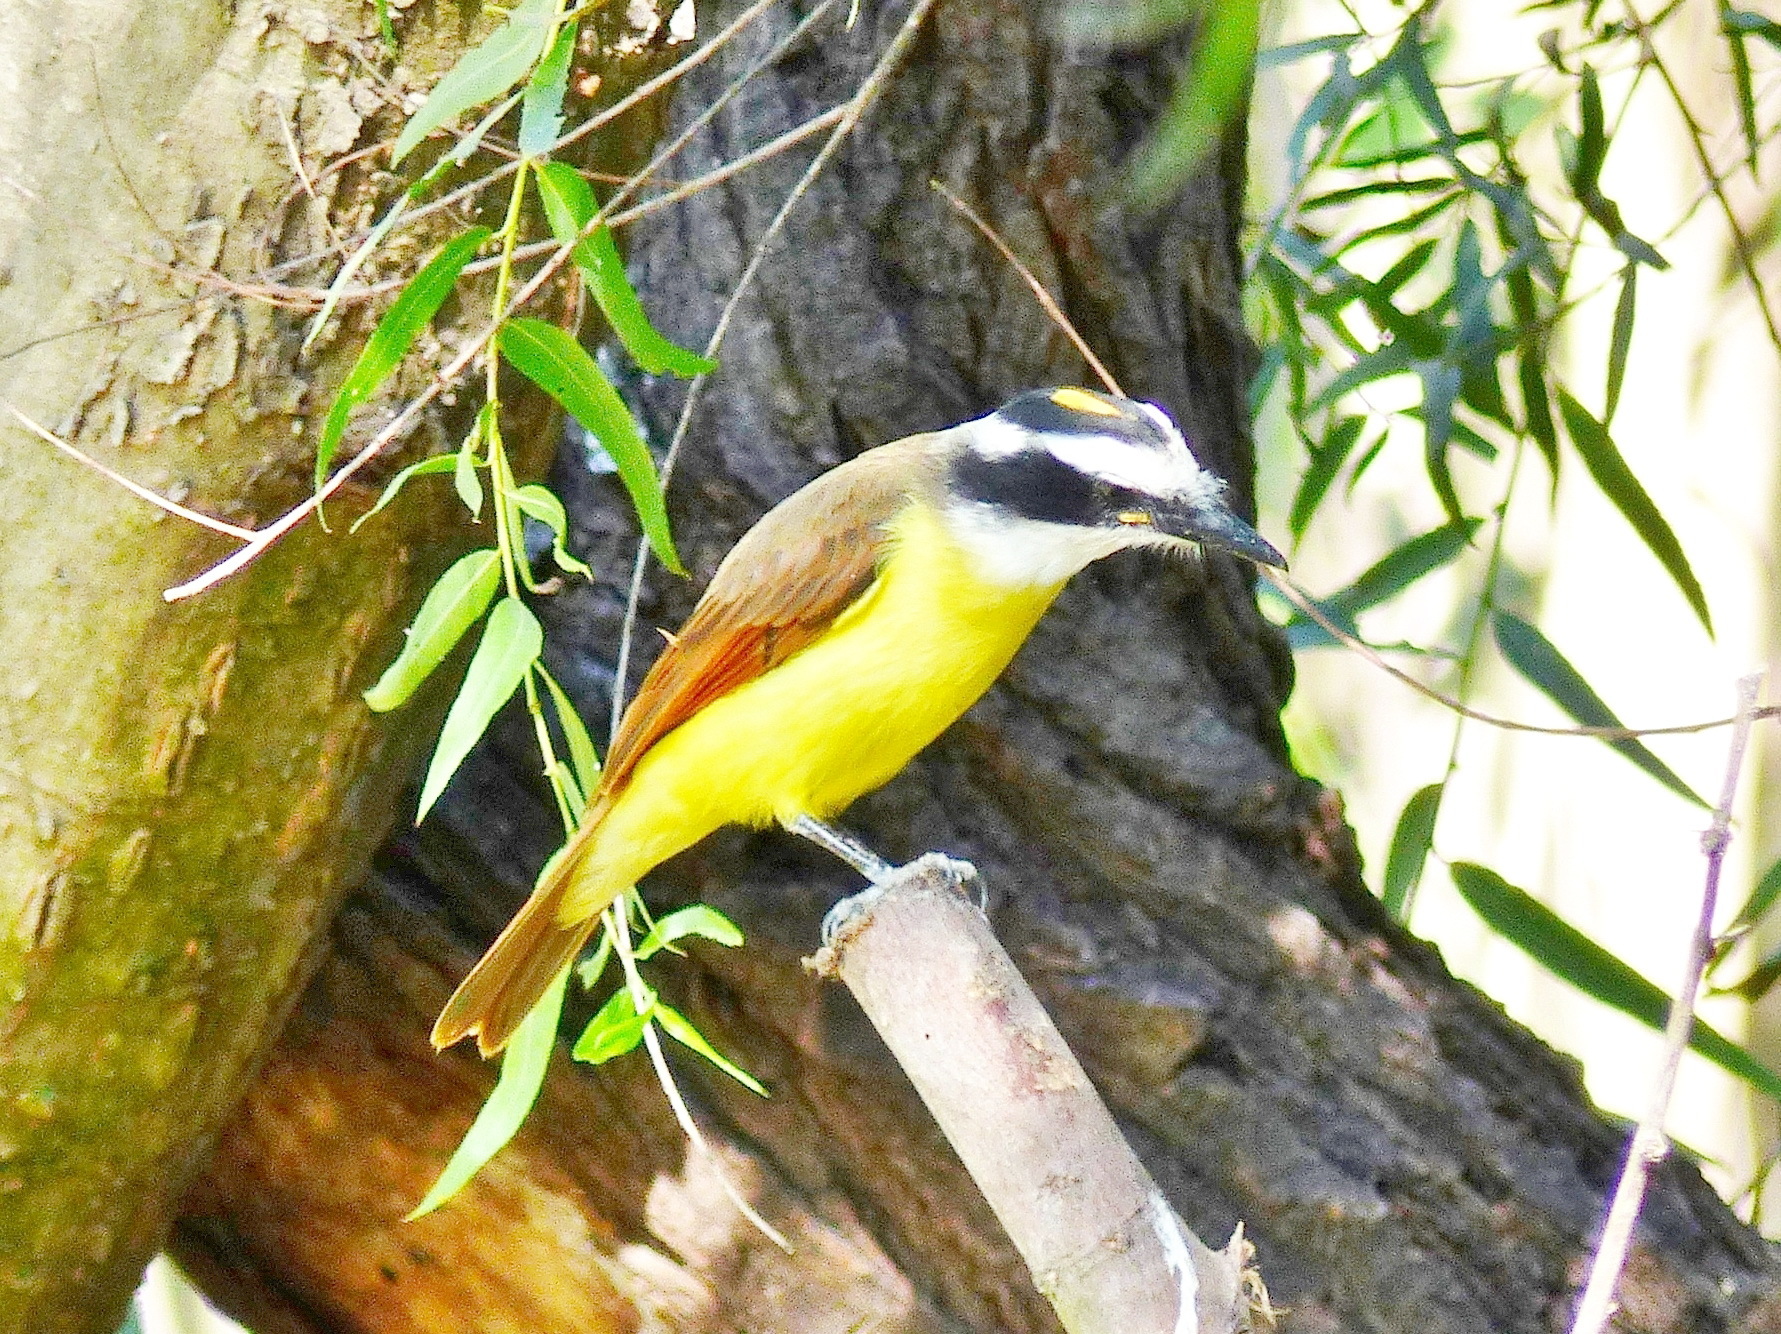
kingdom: Animalia
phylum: Chordata
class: Aves
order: Passeriformes
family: Tyrannidae
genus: Pitangus
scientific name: Pitangus sulphuratus
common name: Great kiskadee
